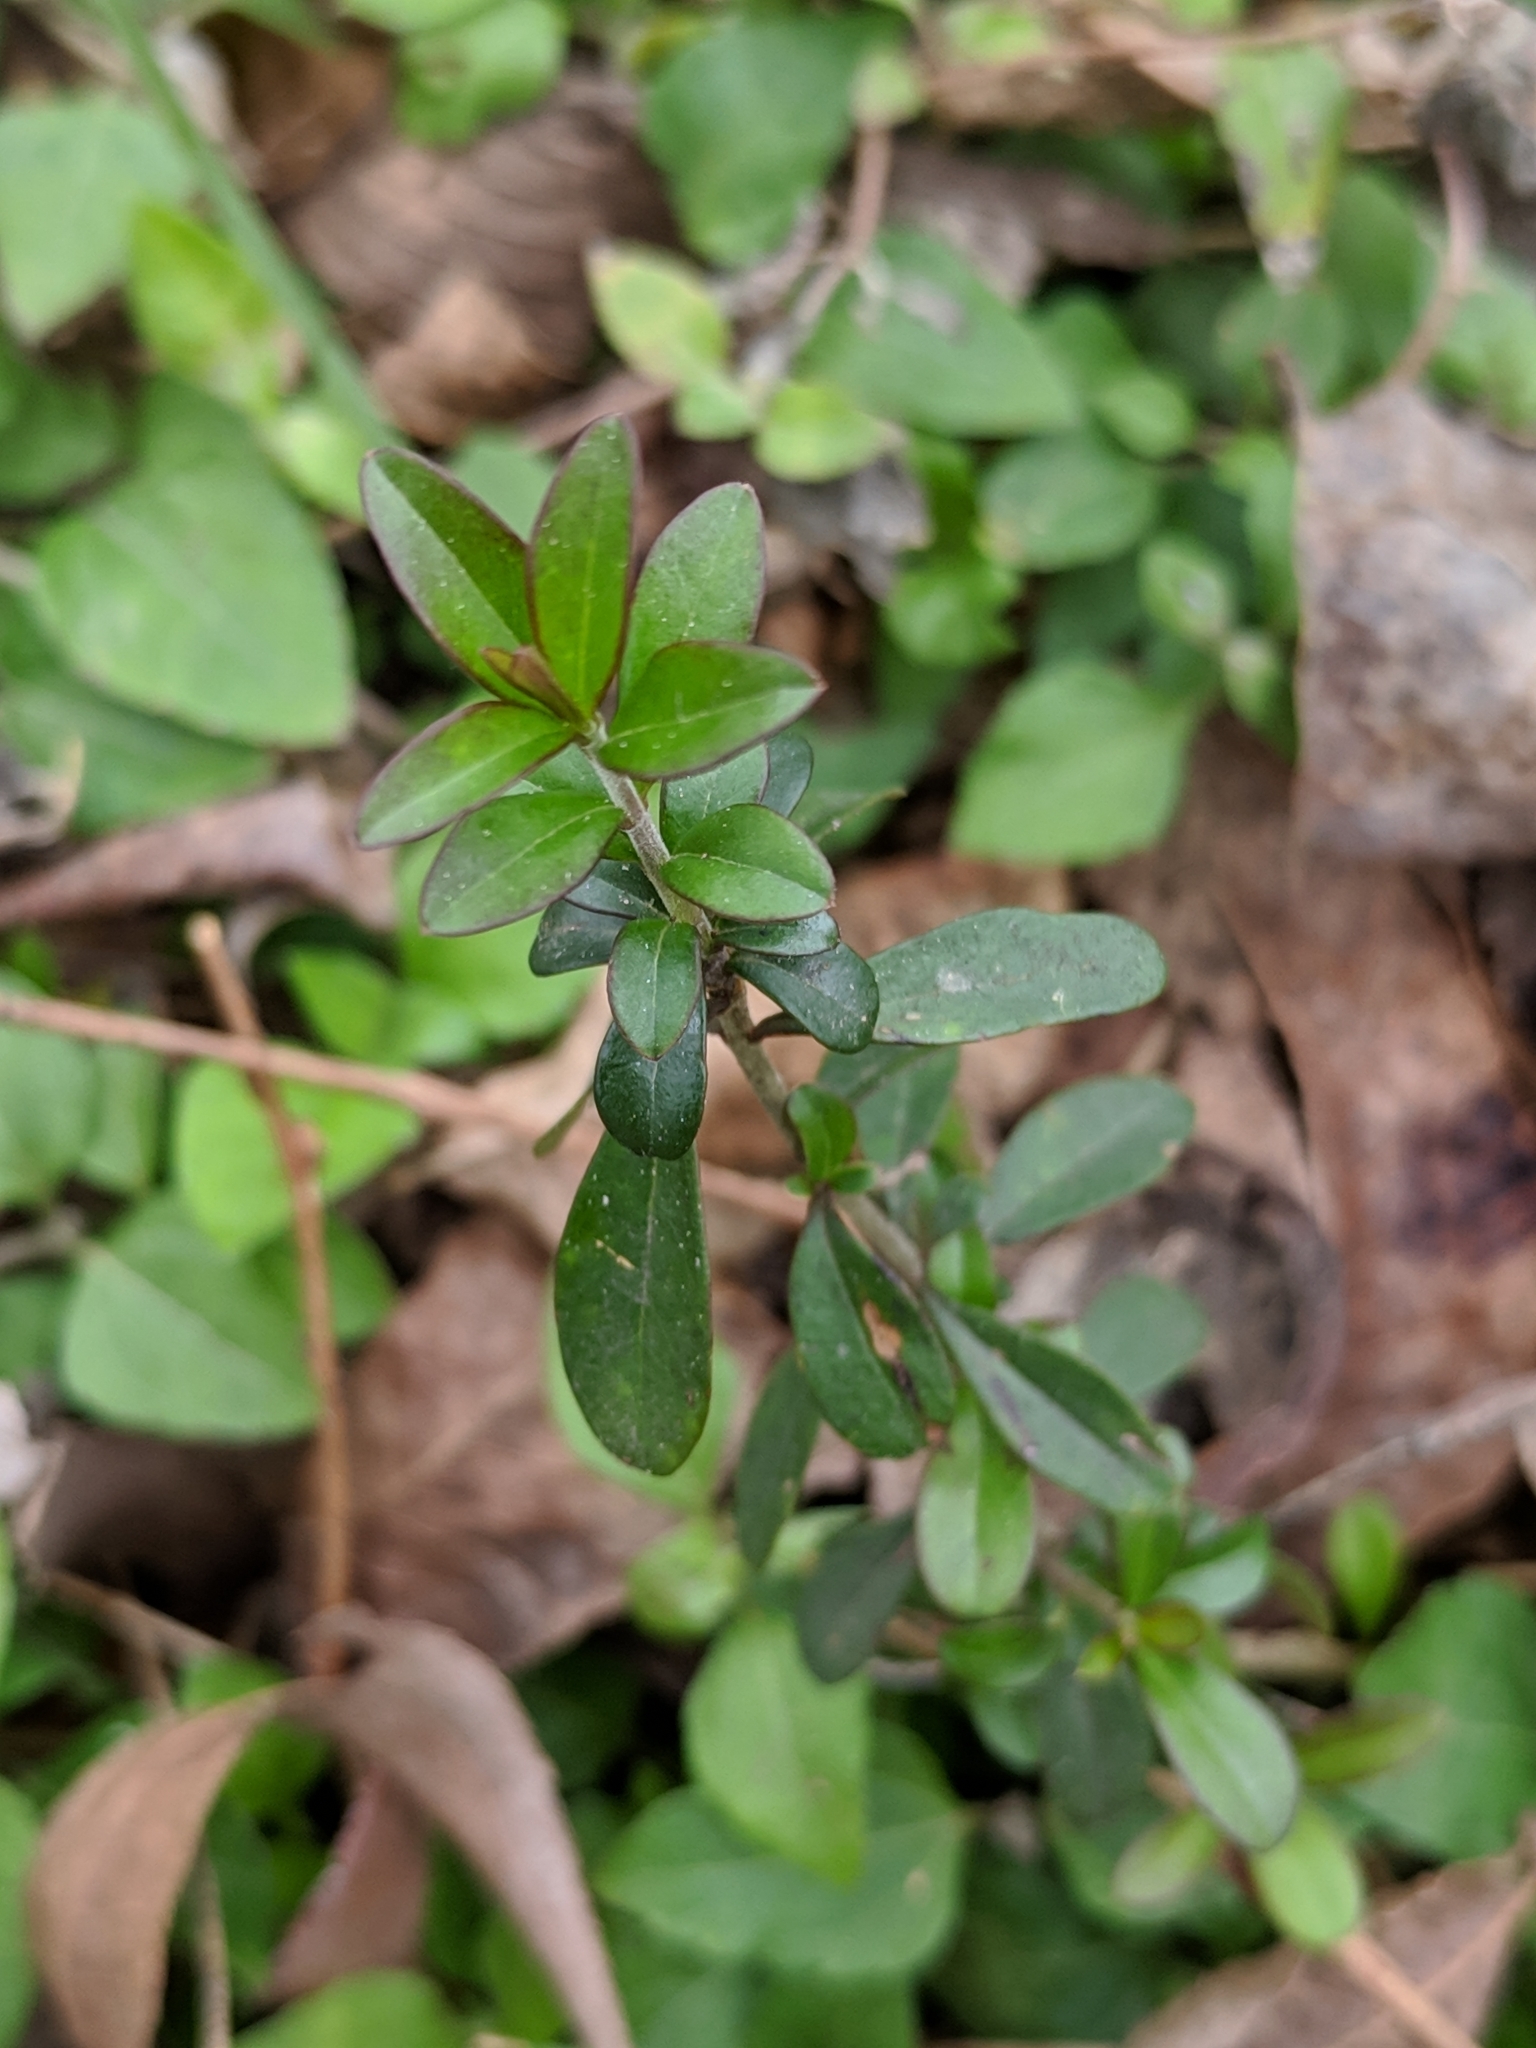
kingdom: Plantae
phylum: Tracheophyta
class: Magnoliopsida
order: Lamiales
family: Oleaceae
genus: Ligustrum
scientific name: Ligustrum quihoui
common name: Waxyleaf privet
